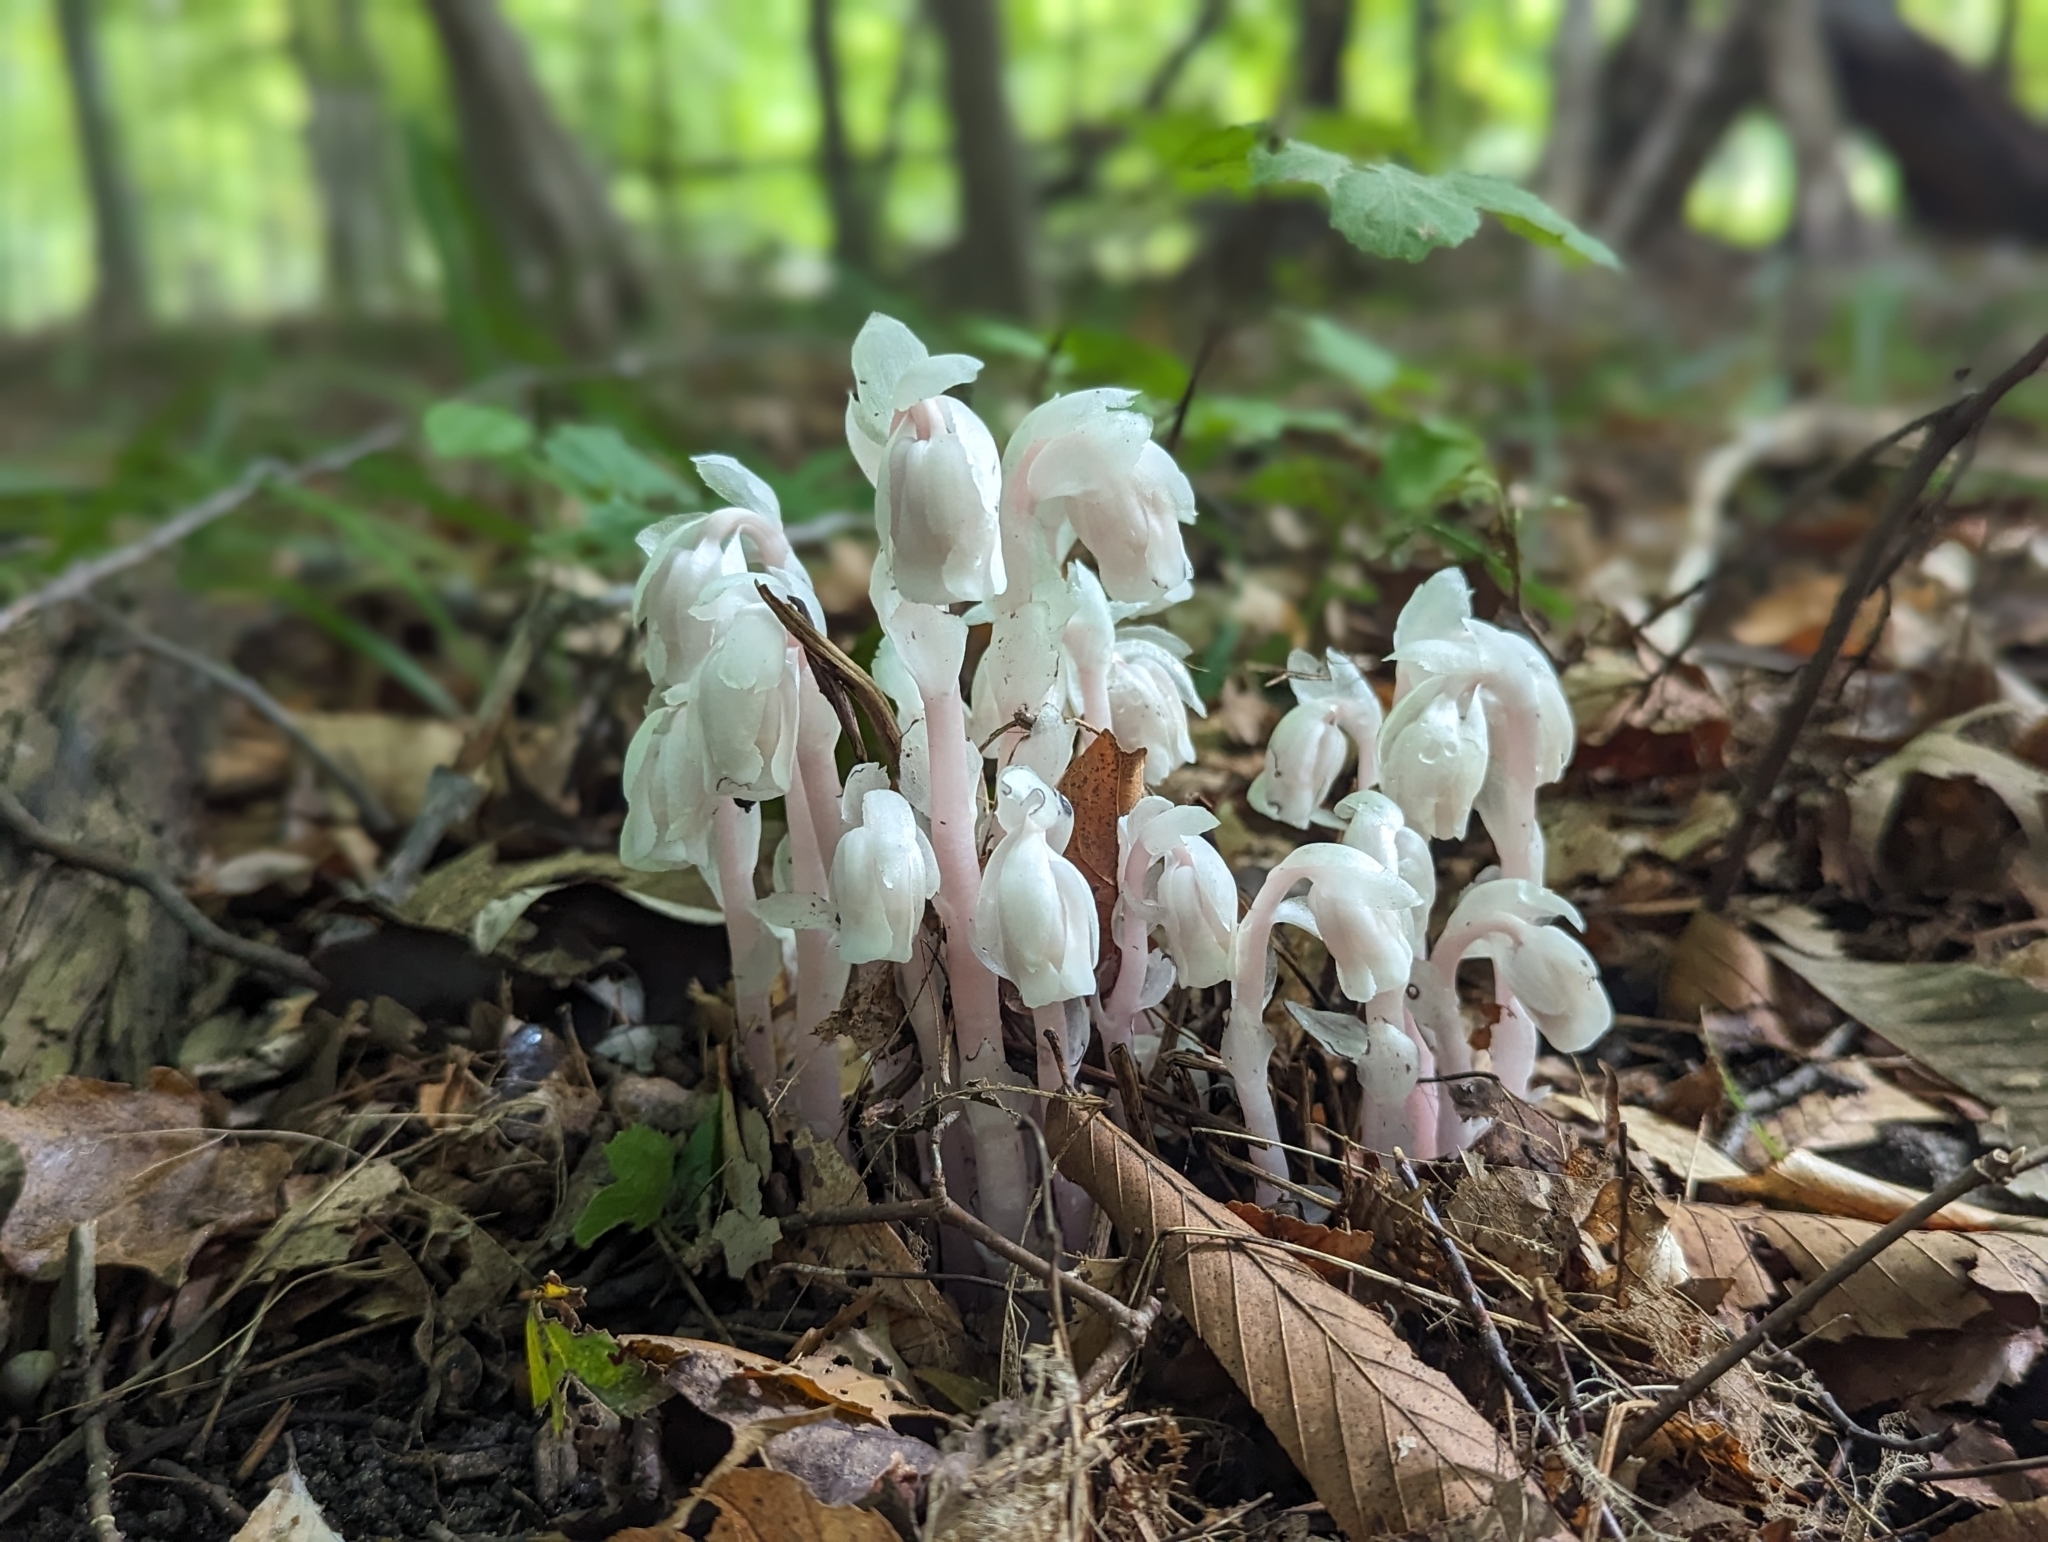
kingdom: Plantae
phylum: Tracheophyta
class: Magnoliopsida
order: Ericales
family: Ericaceae
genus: Monotropa
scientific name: Monotropa uniflora
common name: Convulsion root
